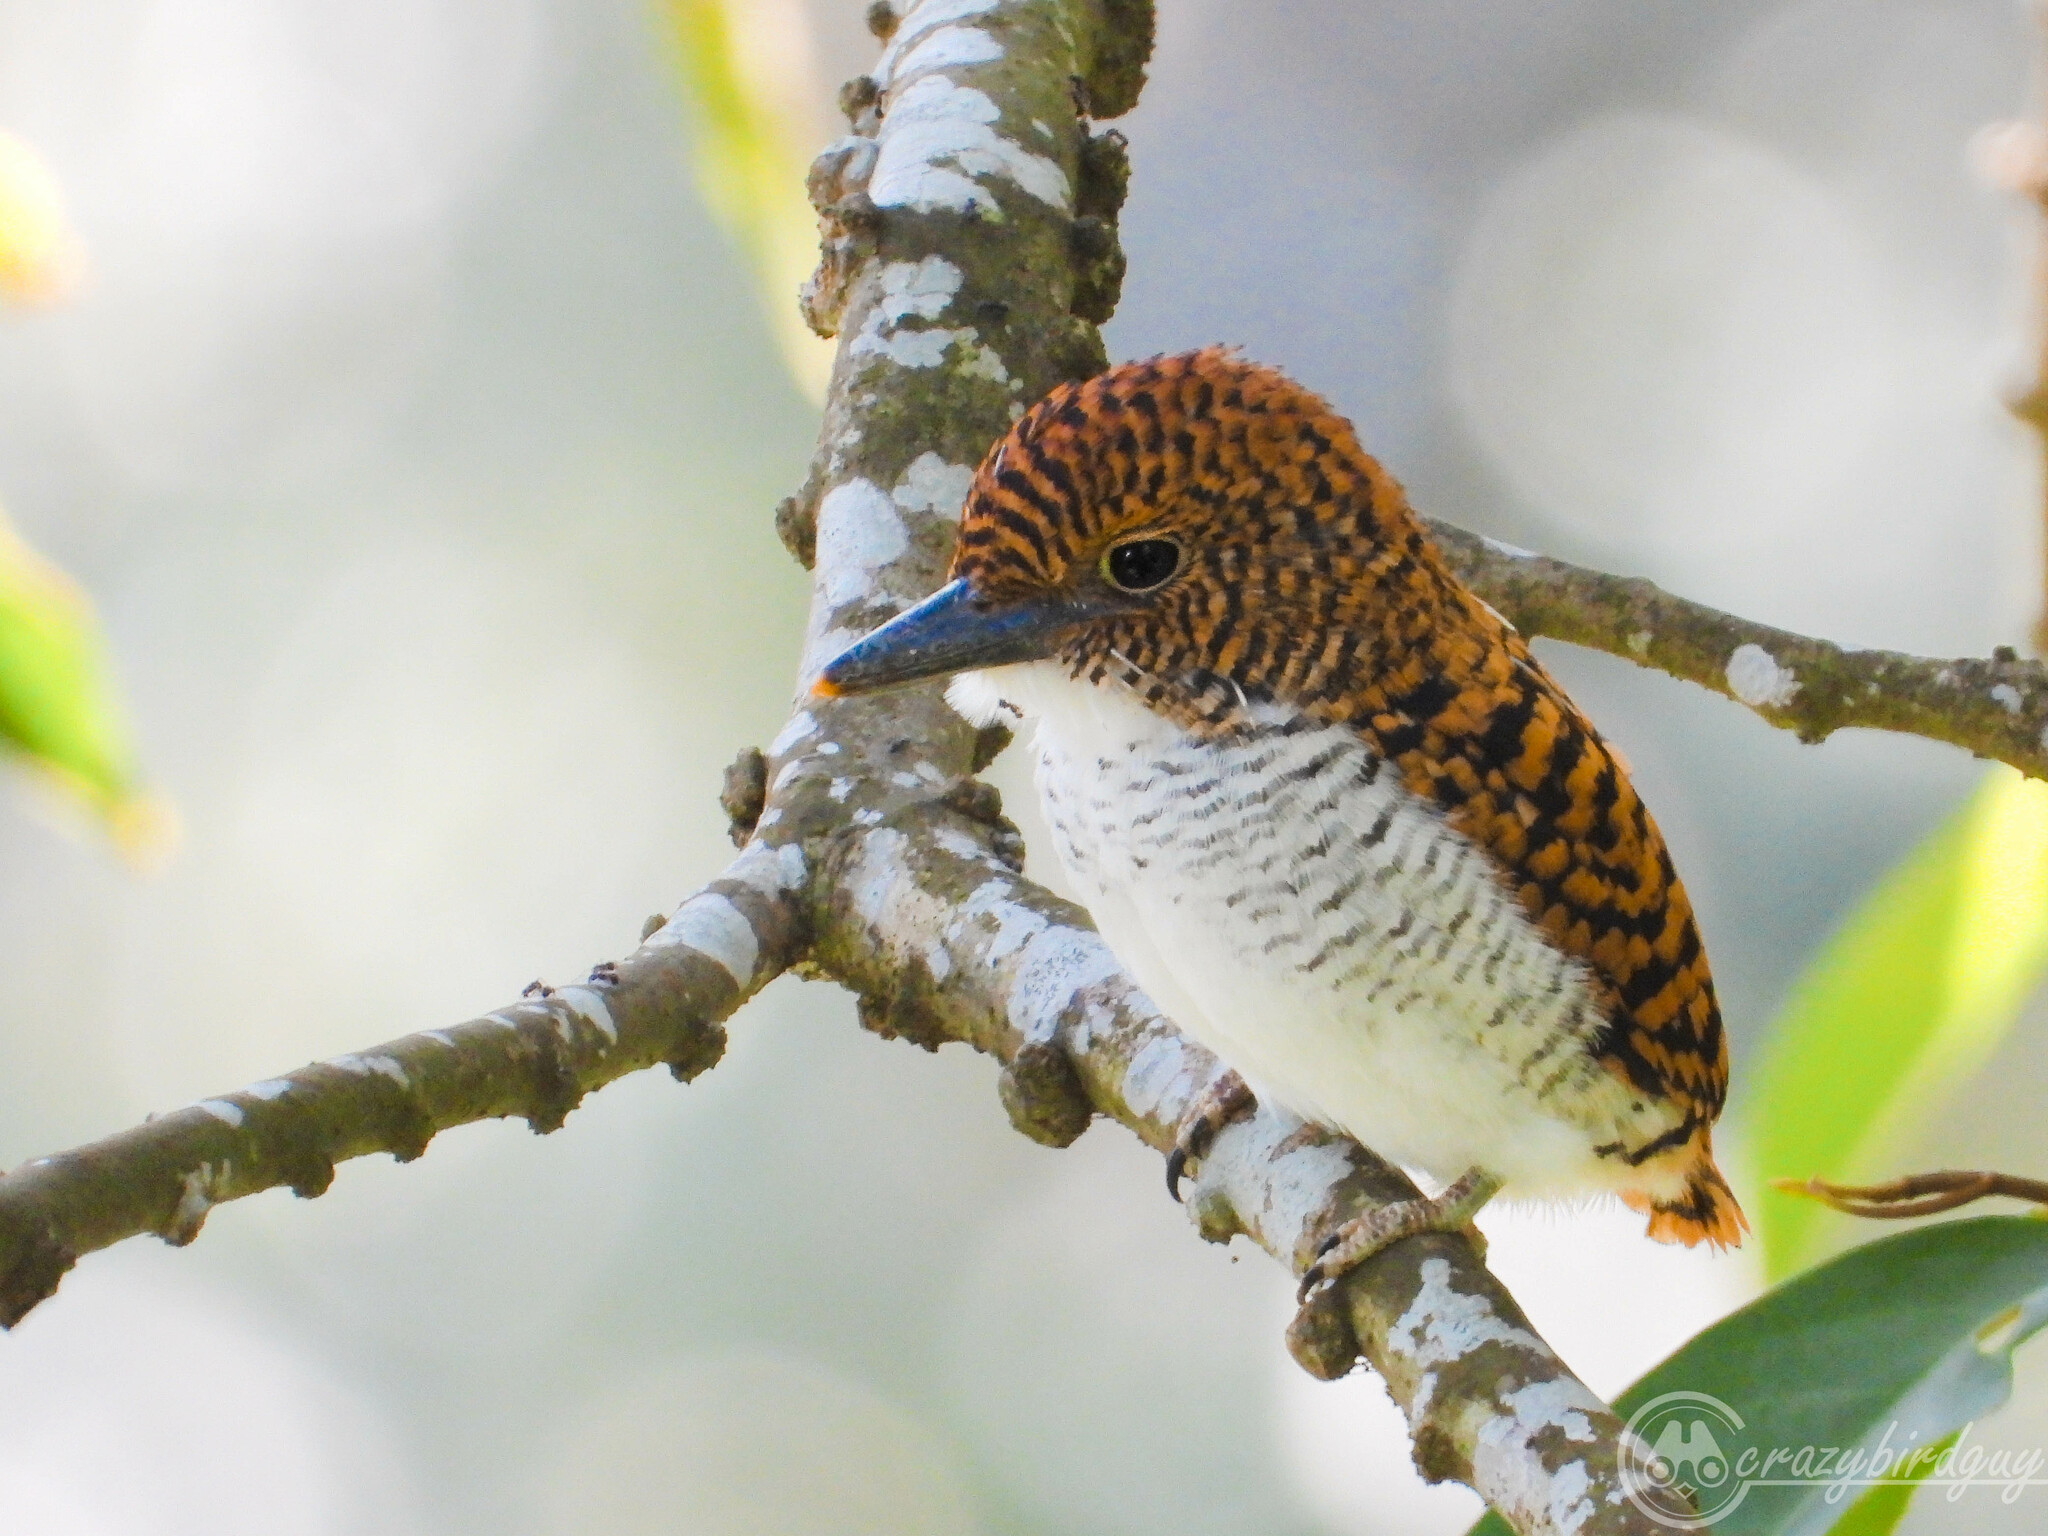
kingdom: Animalia
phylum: Chordata
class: Aves
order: Coraciiformes
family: Alcedinidae
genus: Lacedo
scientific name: Lacedo pulchella
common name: Banded kingfisher
